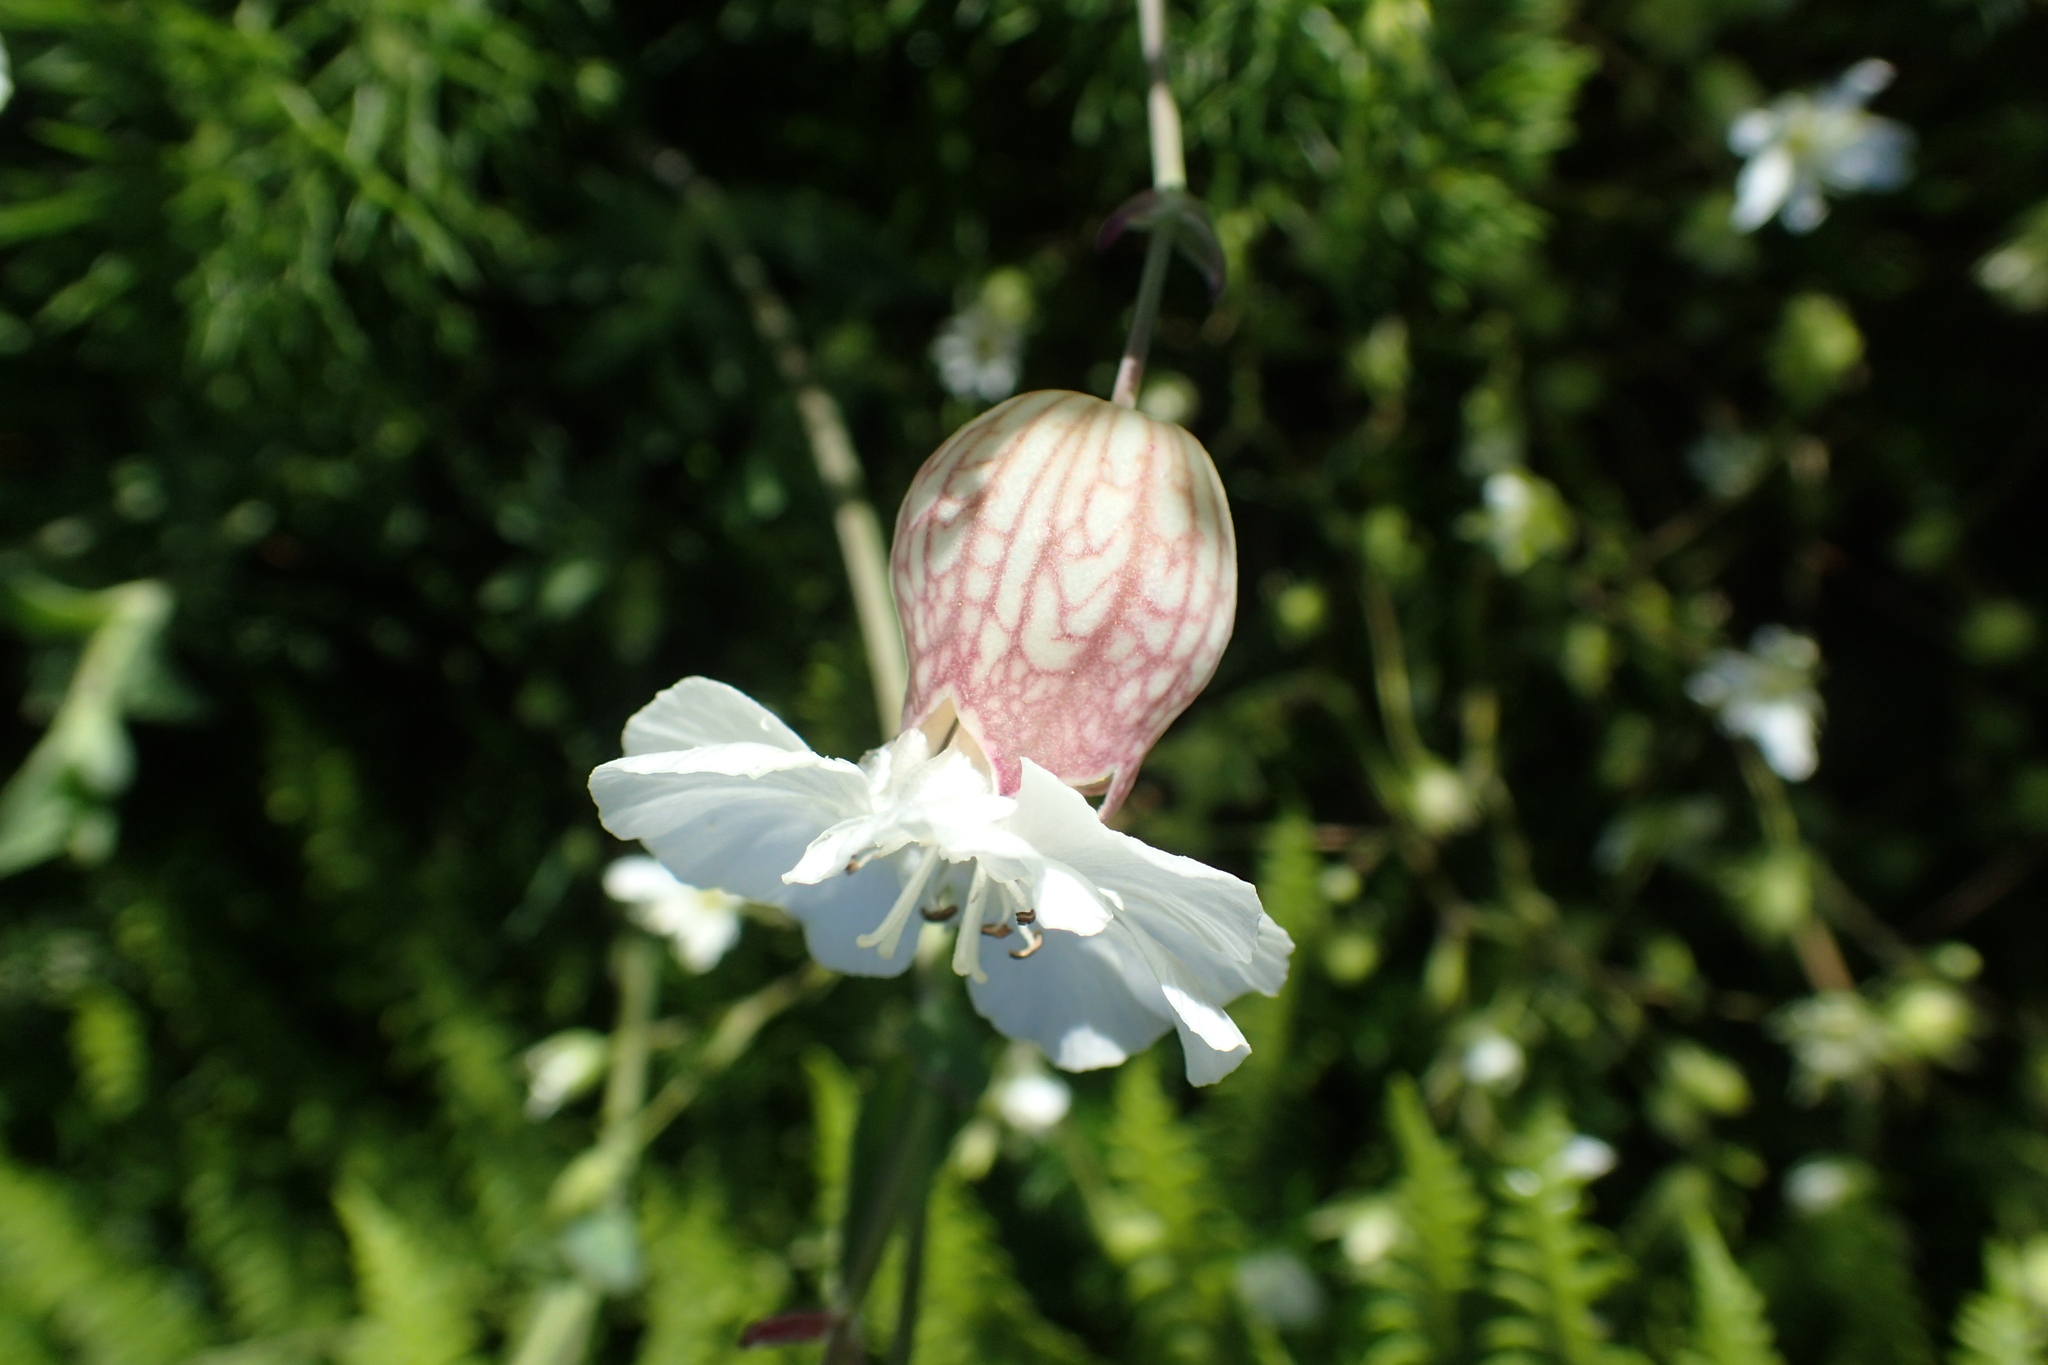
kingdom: Plantae
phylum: Tracheophyta
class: Magnoliopsida
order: Caryophyllales
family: Caryophyllaceae
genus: Silene
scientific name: Silene uniflora
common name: Sea campion
